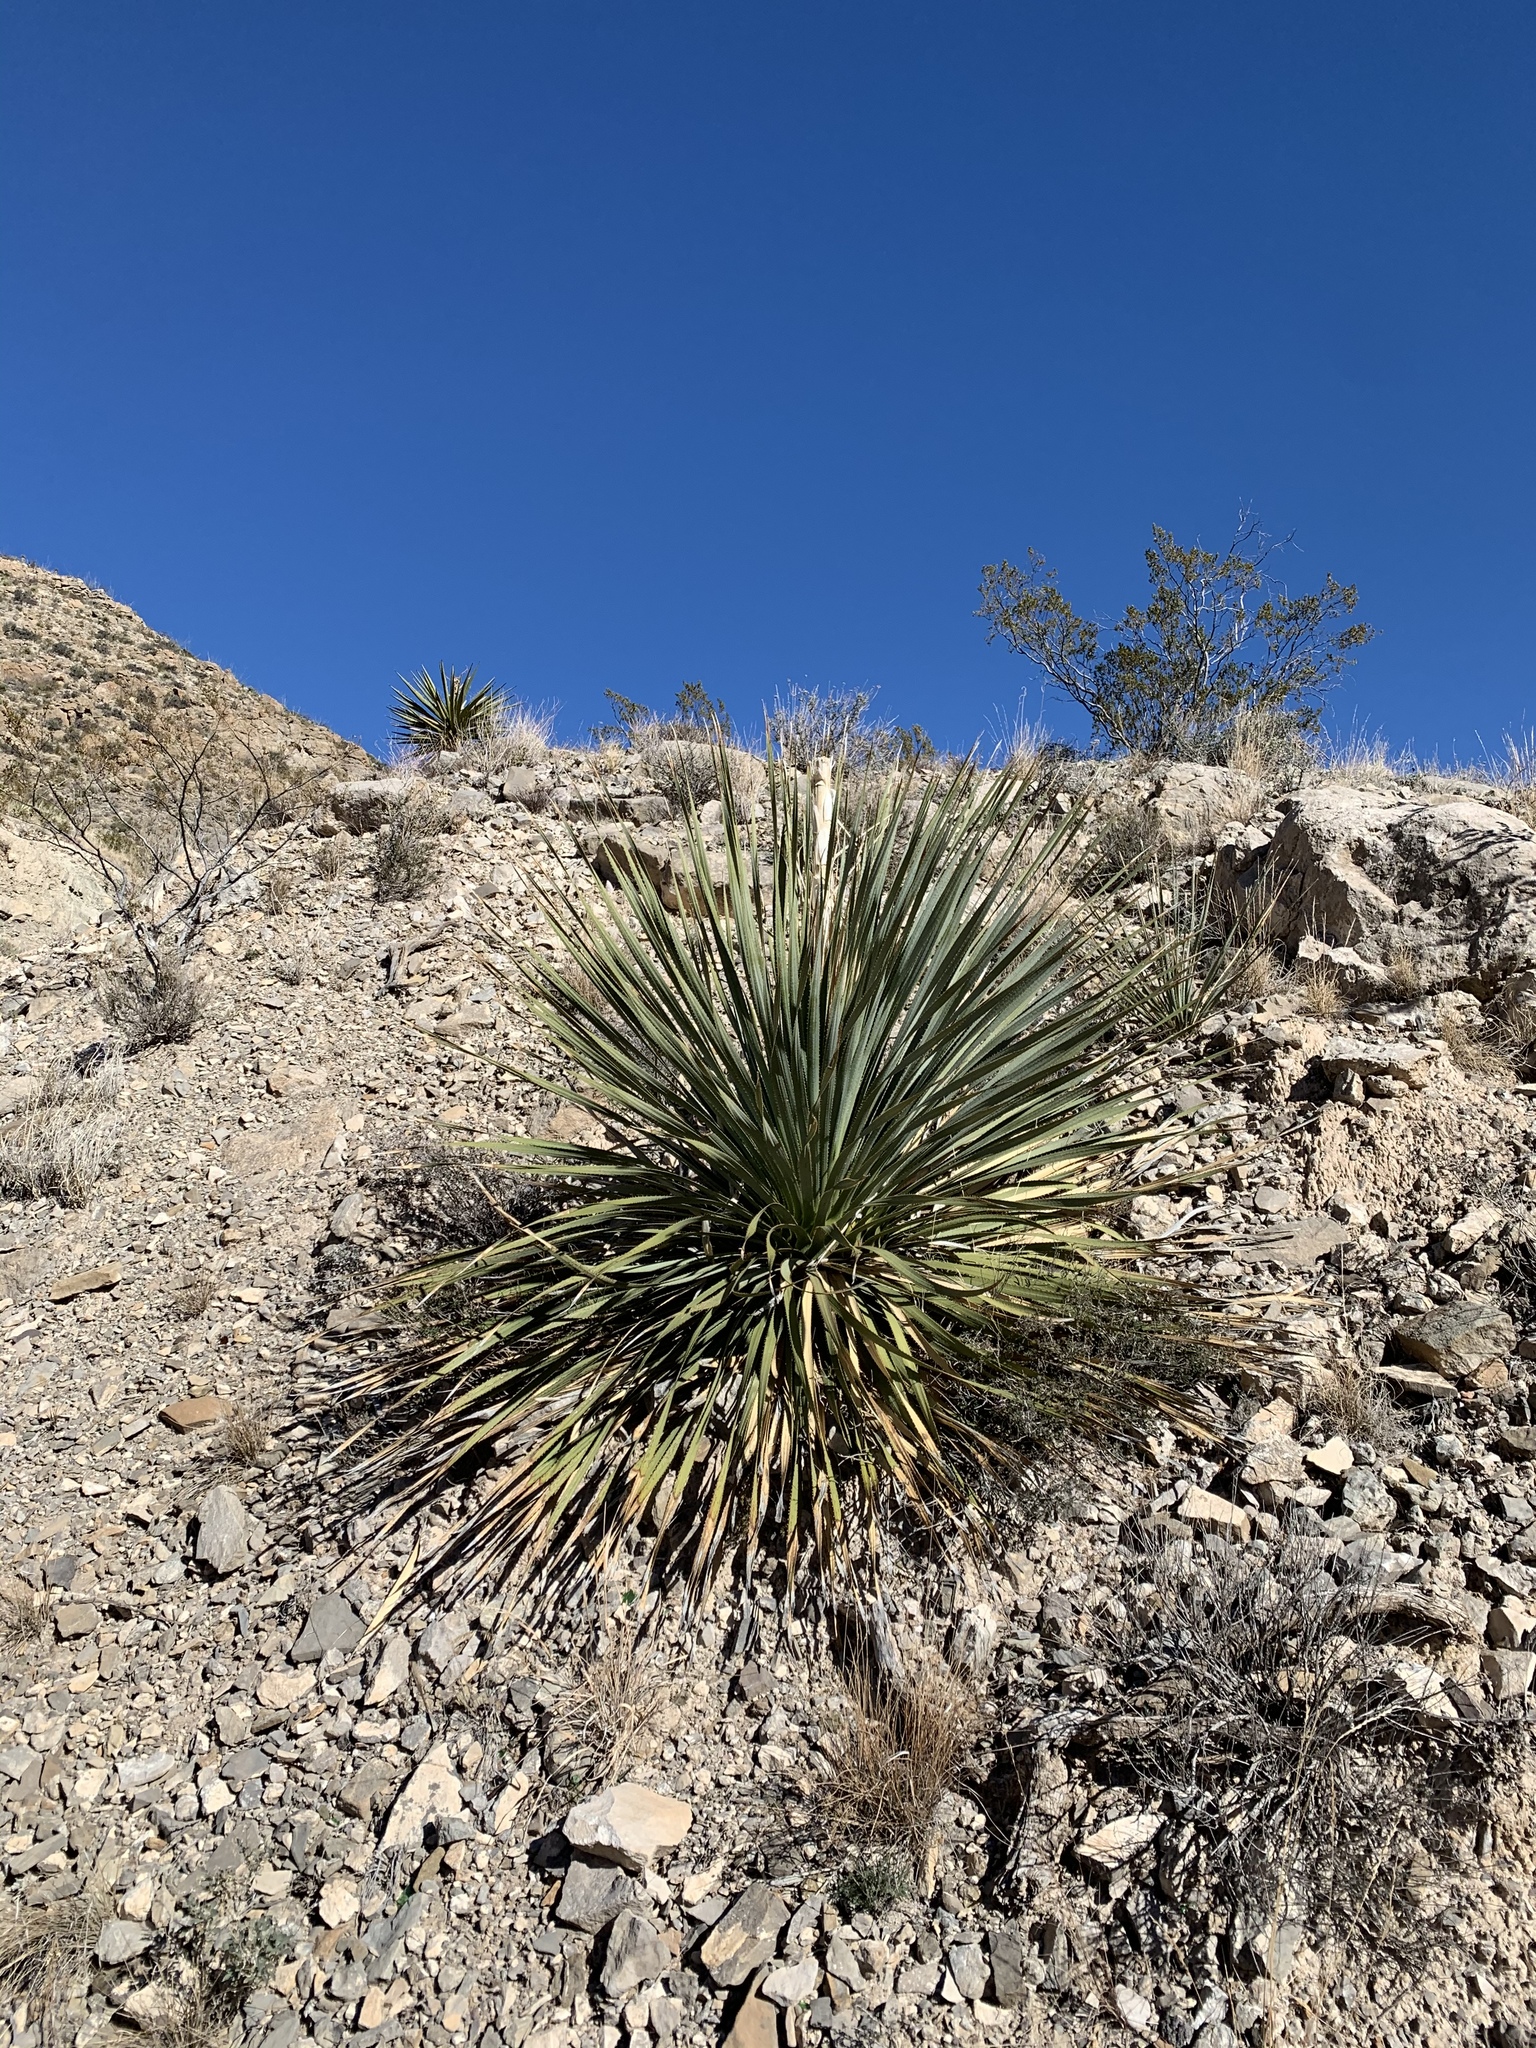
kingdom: Plantae
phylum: Tracheophyta
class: Liliopsida
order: Asparagales
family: Asparagaceae
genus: Dasylirion
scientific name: Dasylirion wheeleri
